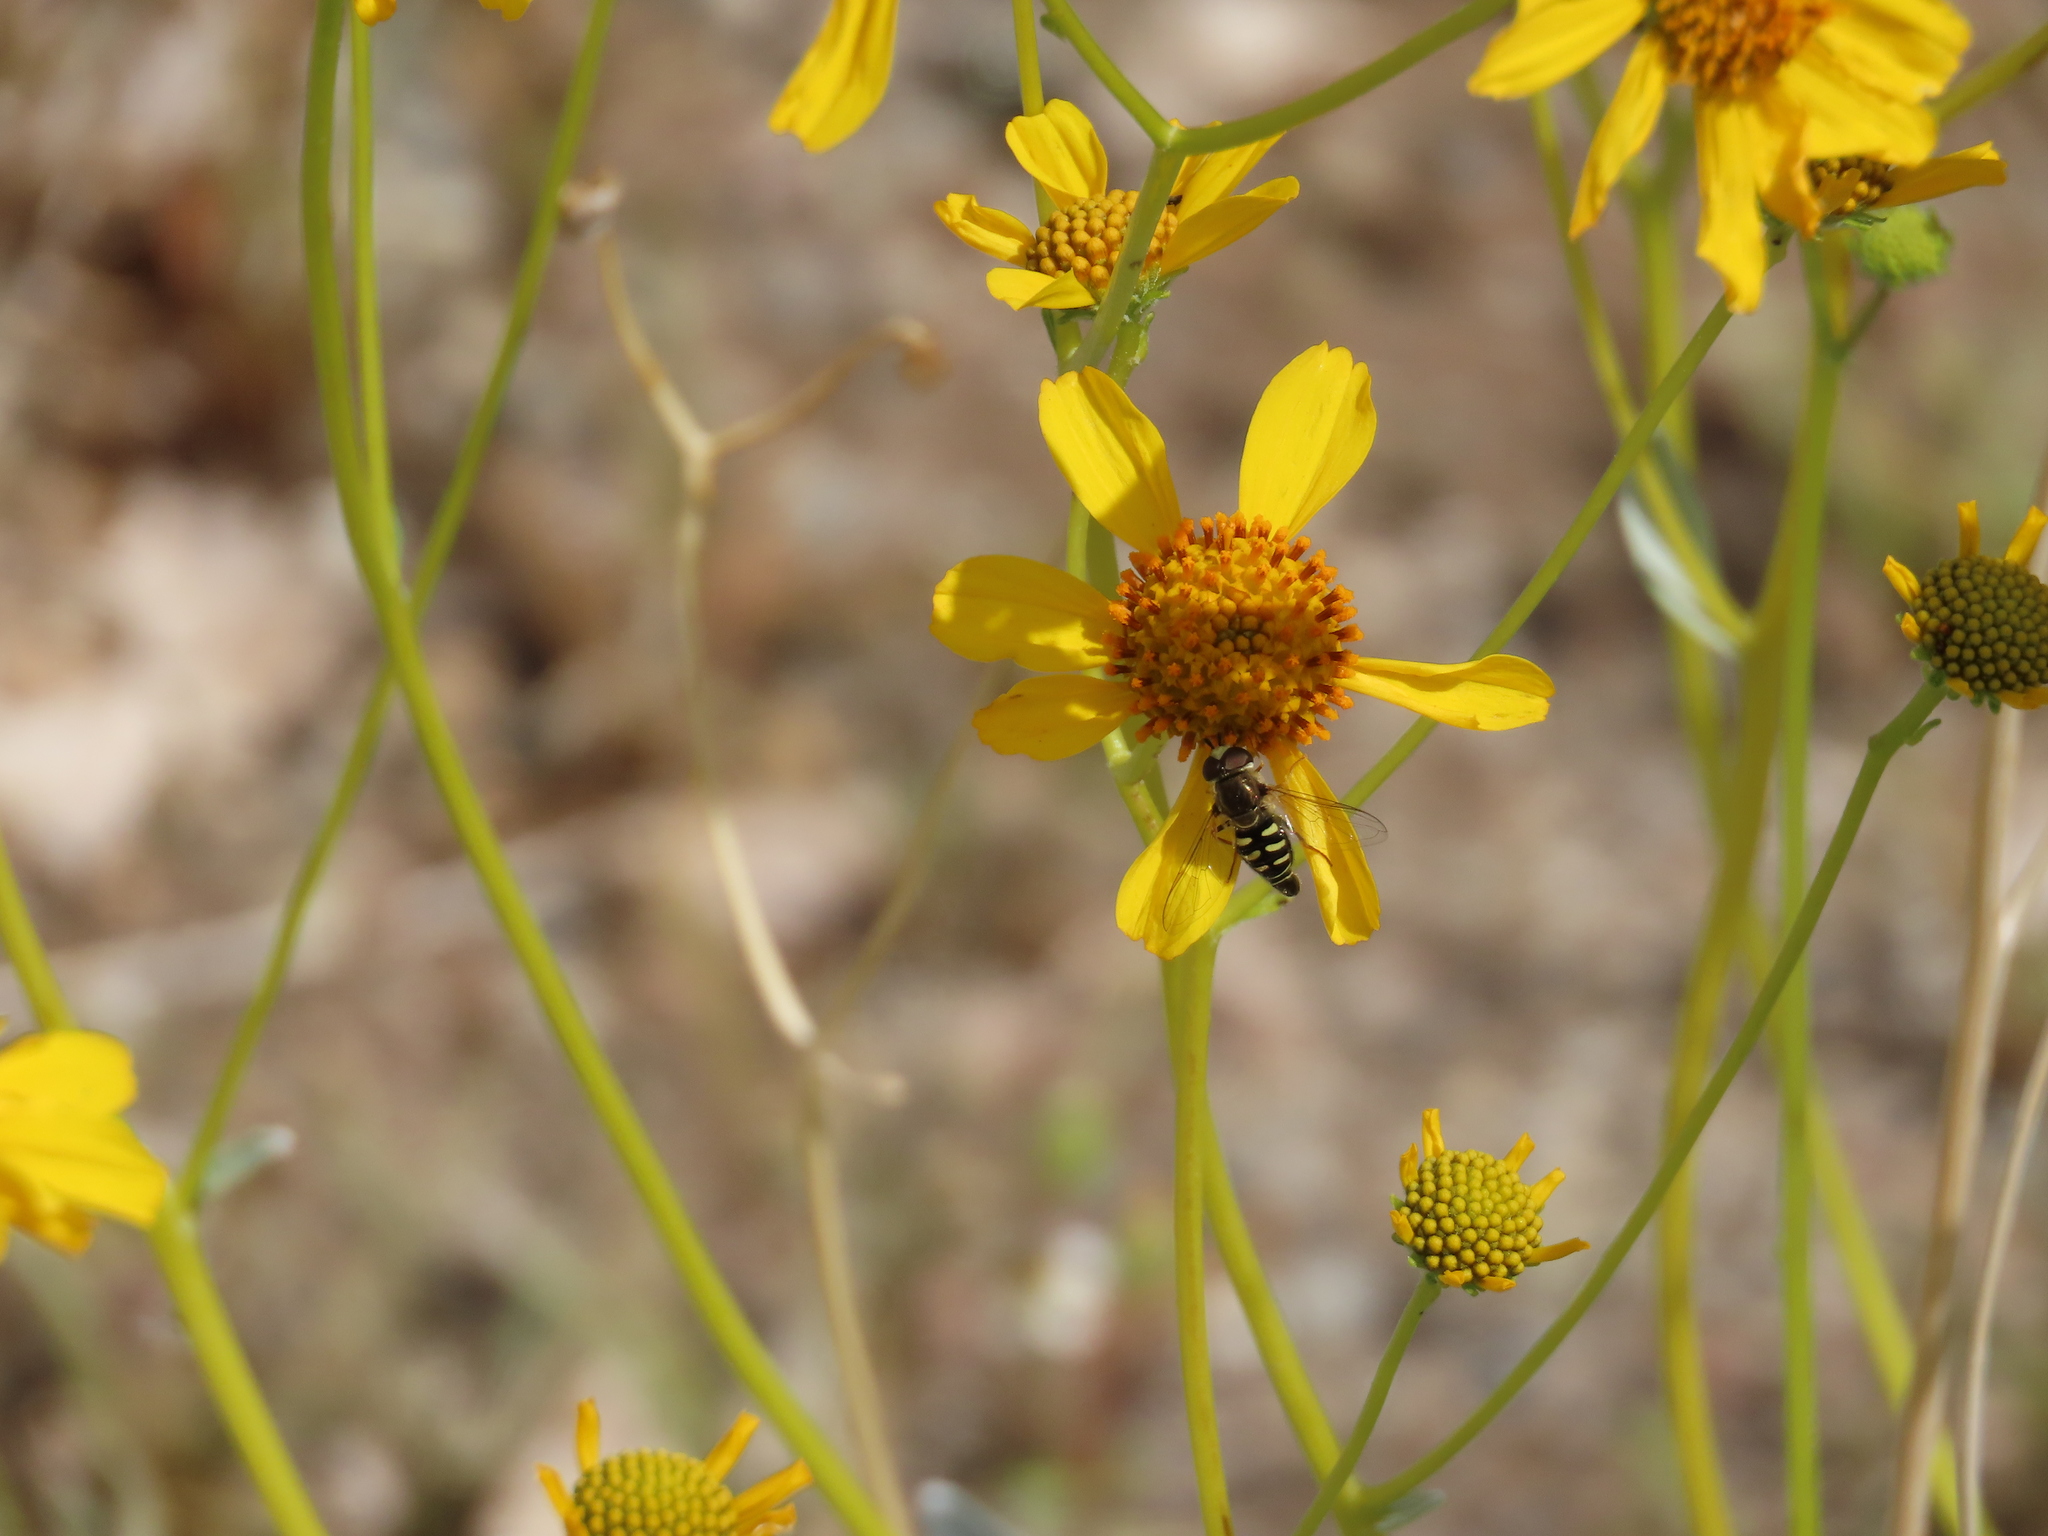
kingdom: Animalia
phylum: Arthropoda
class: Insecta
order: Diptera
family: Syrphidae
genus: Eupeodes
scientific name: Eupeodes volucris
